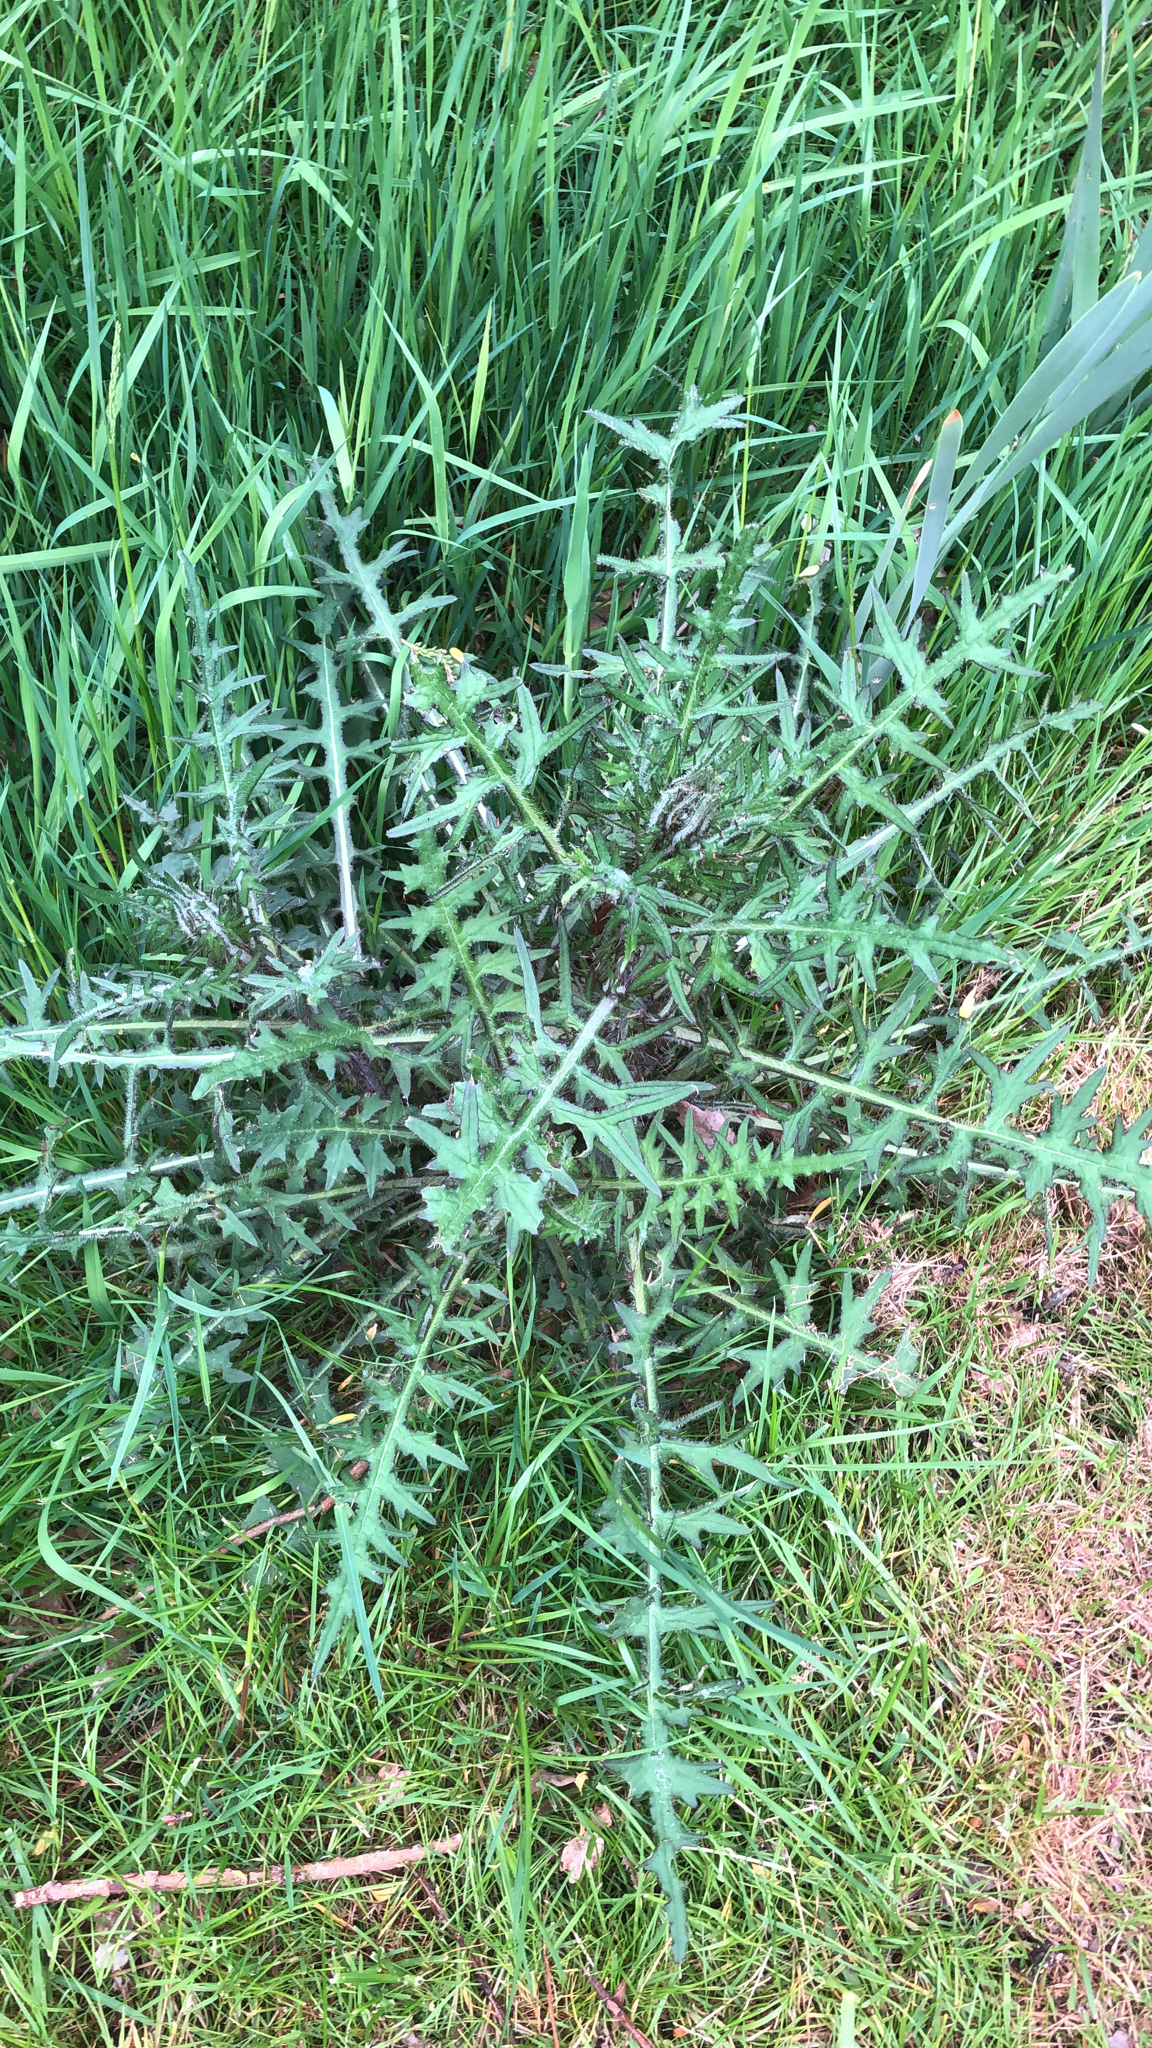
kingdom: Plantae
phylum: Tracheophyta
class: Magnoliopsida
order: Asterales
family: Asteraceae
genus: Cirsium
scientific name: Cirsium palustre
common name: Marsh thistle
